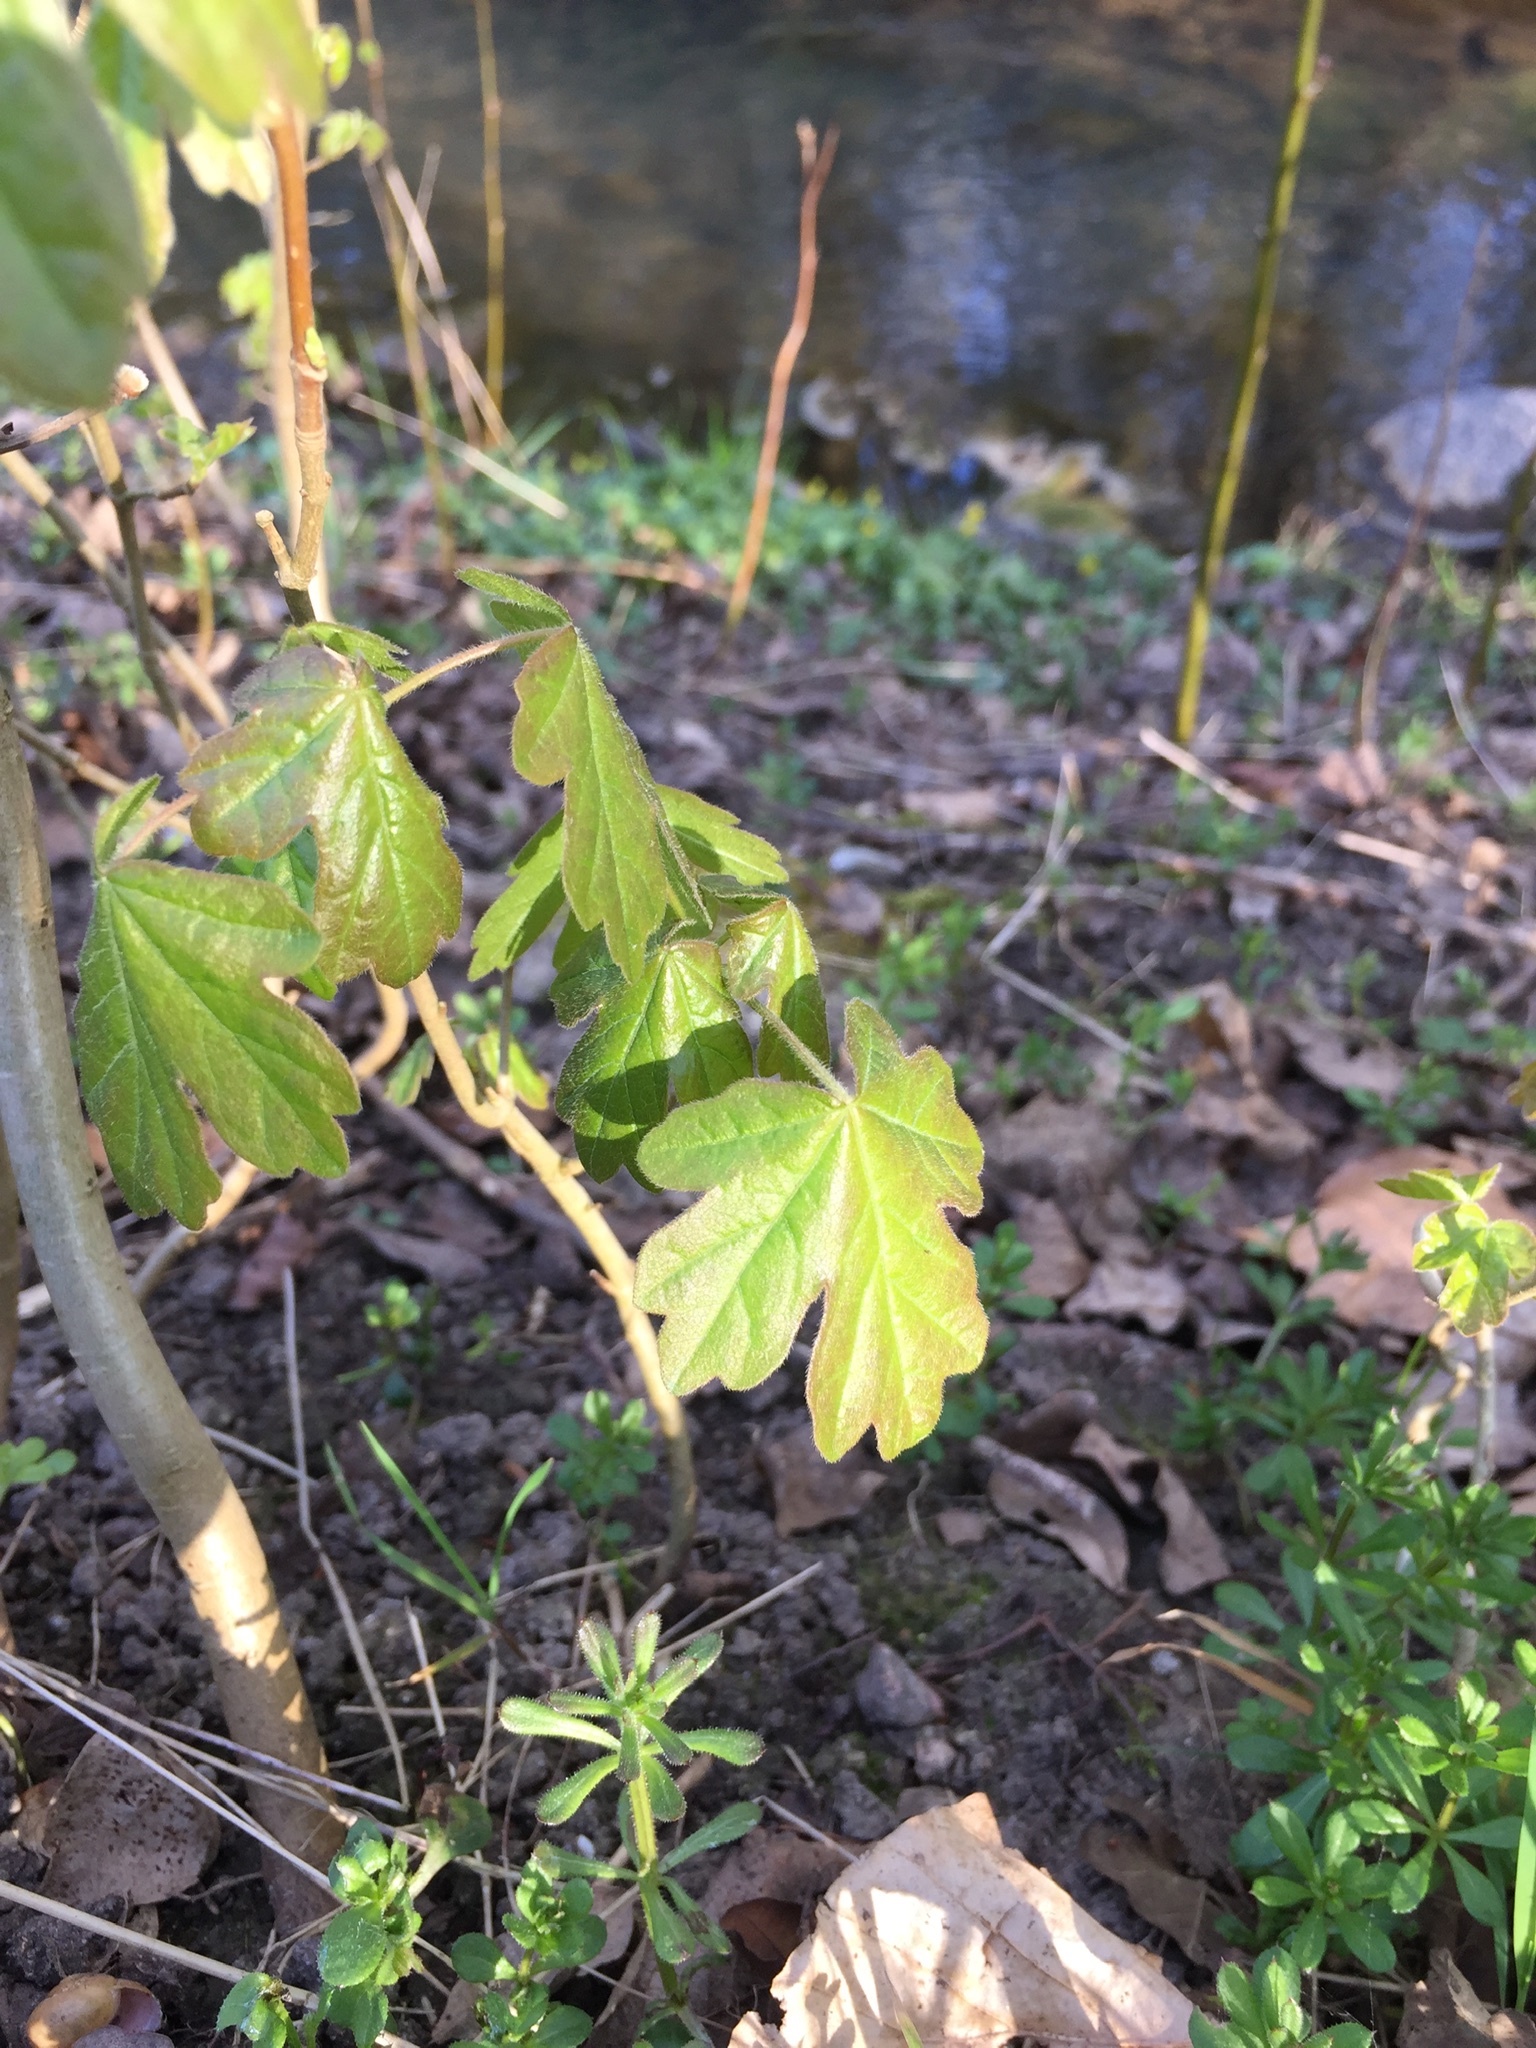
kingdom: Plantae
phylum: Tracheophyta
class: Magnoliopsida
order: Sapindales
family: Sapindaceae
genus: Acer
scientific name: Acer campestre
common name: Field maple
